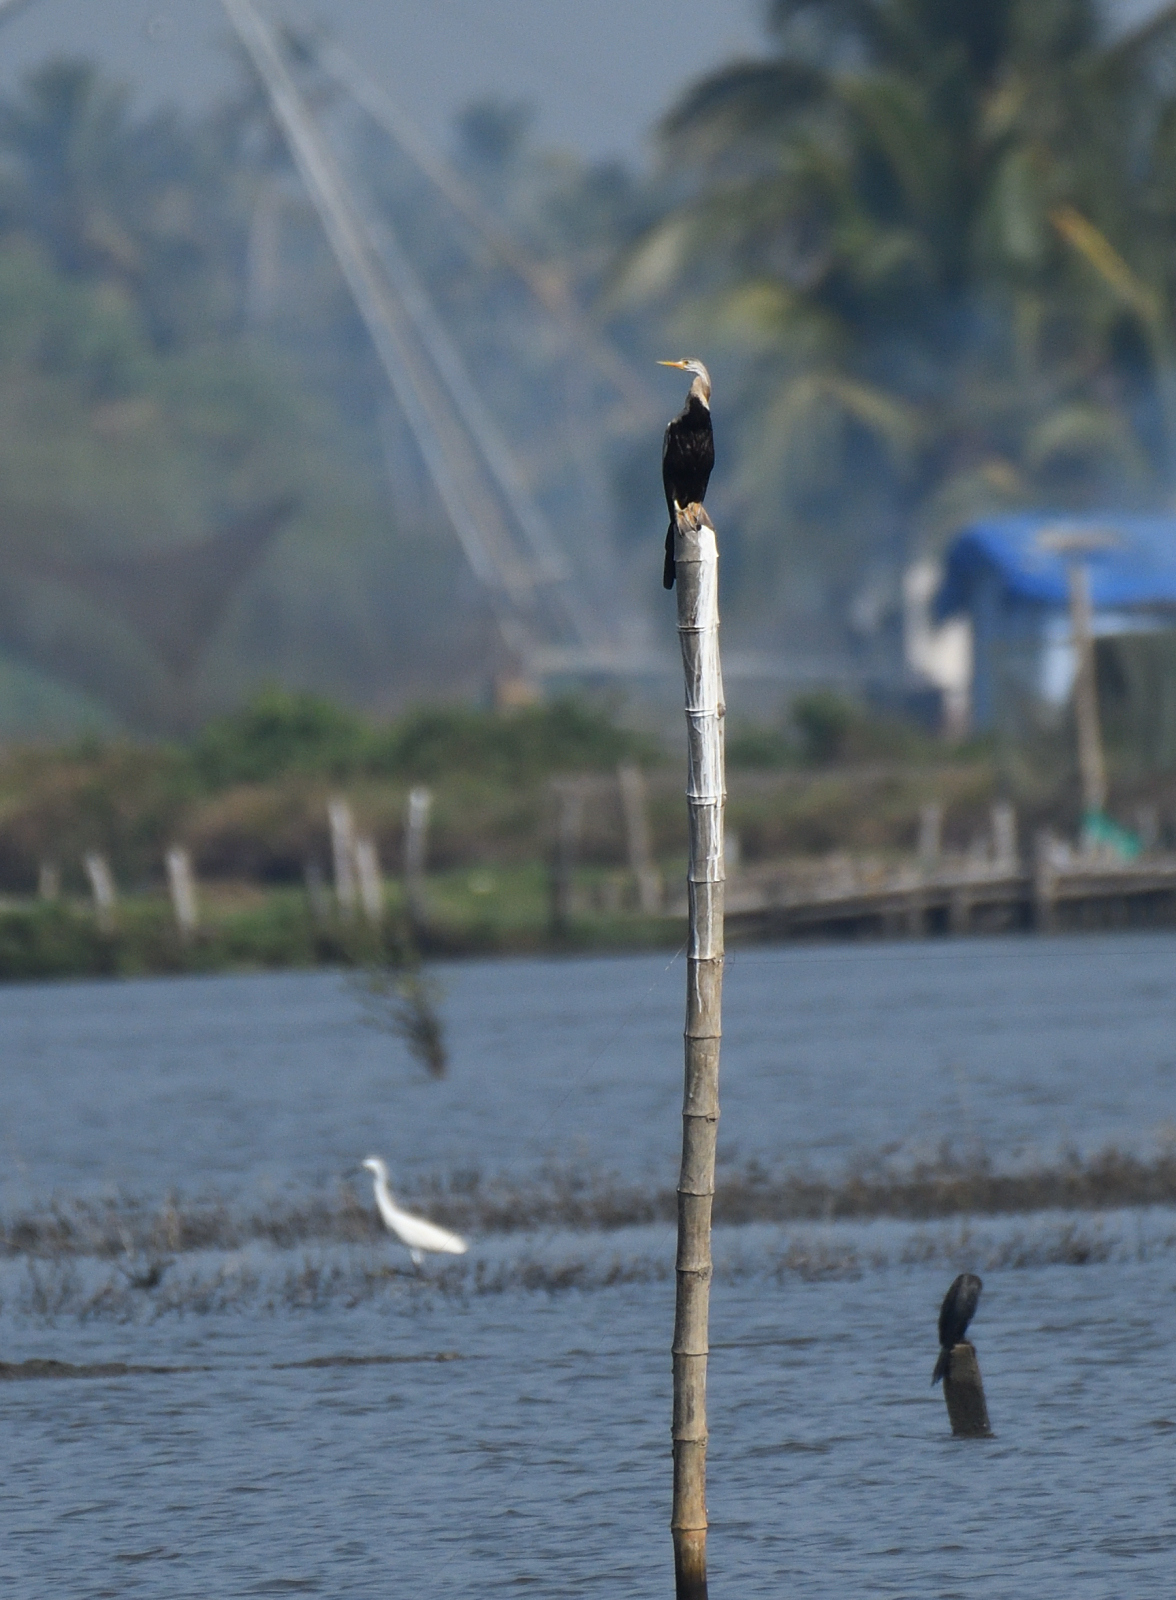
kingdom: Animalia
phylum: Chordata
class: Aves
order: Suliformes
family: Anhingidae
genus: Anhinga
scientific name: Anhinga melanogaster
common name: Oriental darter
